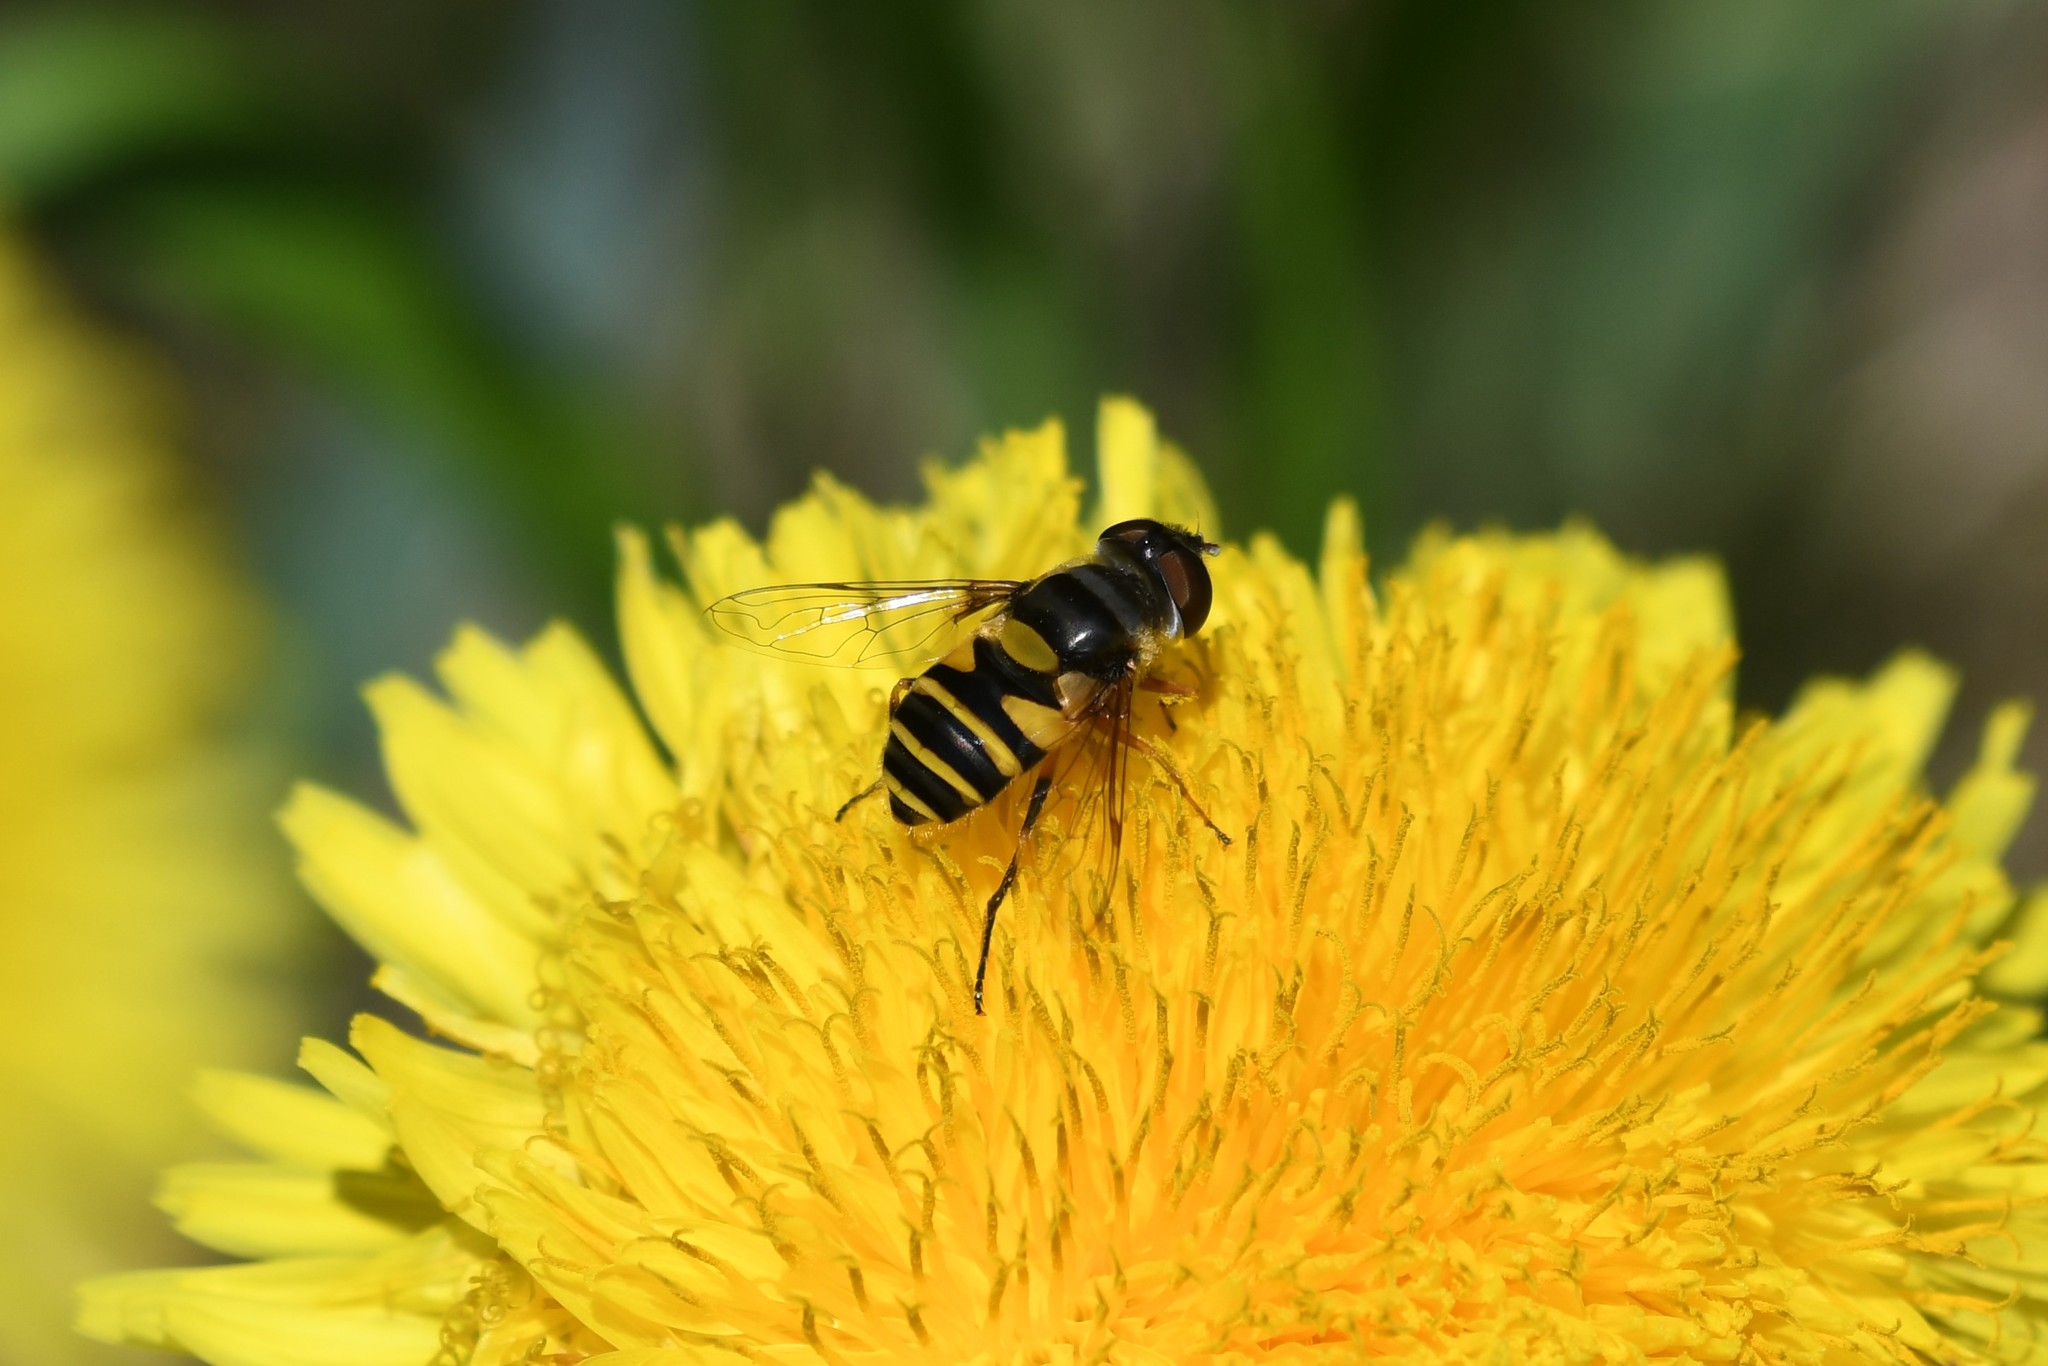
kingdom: Animalia
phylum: Arthropoda
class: Insecta
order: Diptera
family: Syrphidae
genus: Eristalis
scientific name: Eristalis transversa
